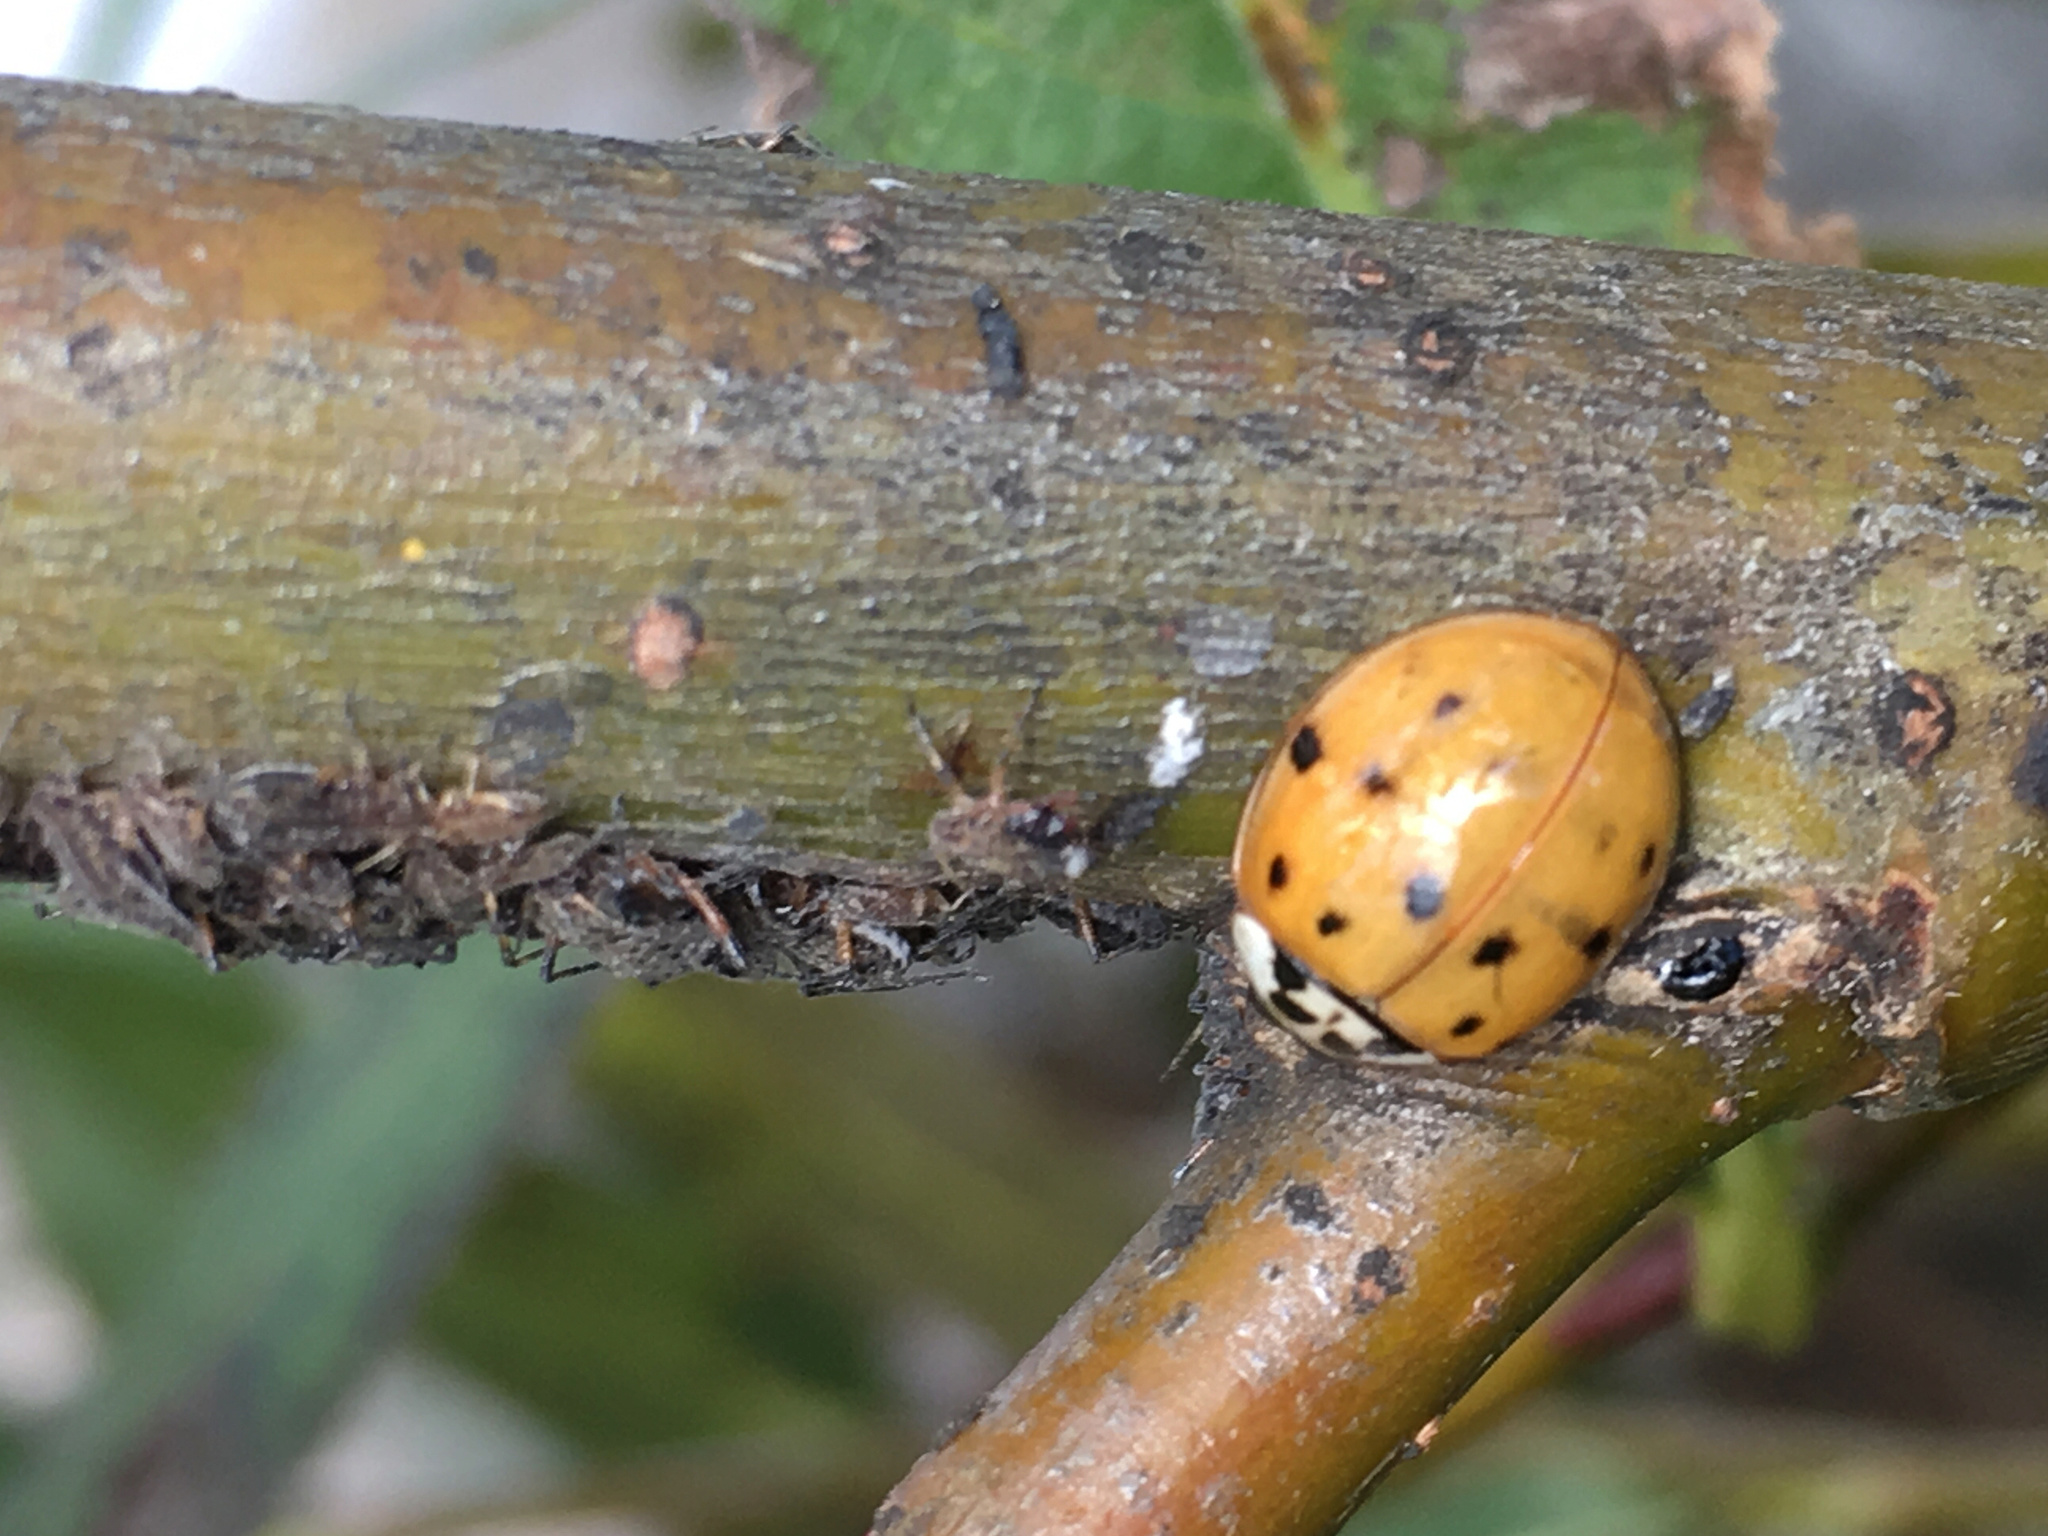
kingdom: Animalia
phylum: Arthropoda
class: Insecta
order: Coleoptera
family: Coccinellidae
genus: Harmonia
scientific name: Harmonia axyridis
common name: Harlequin ladybird
